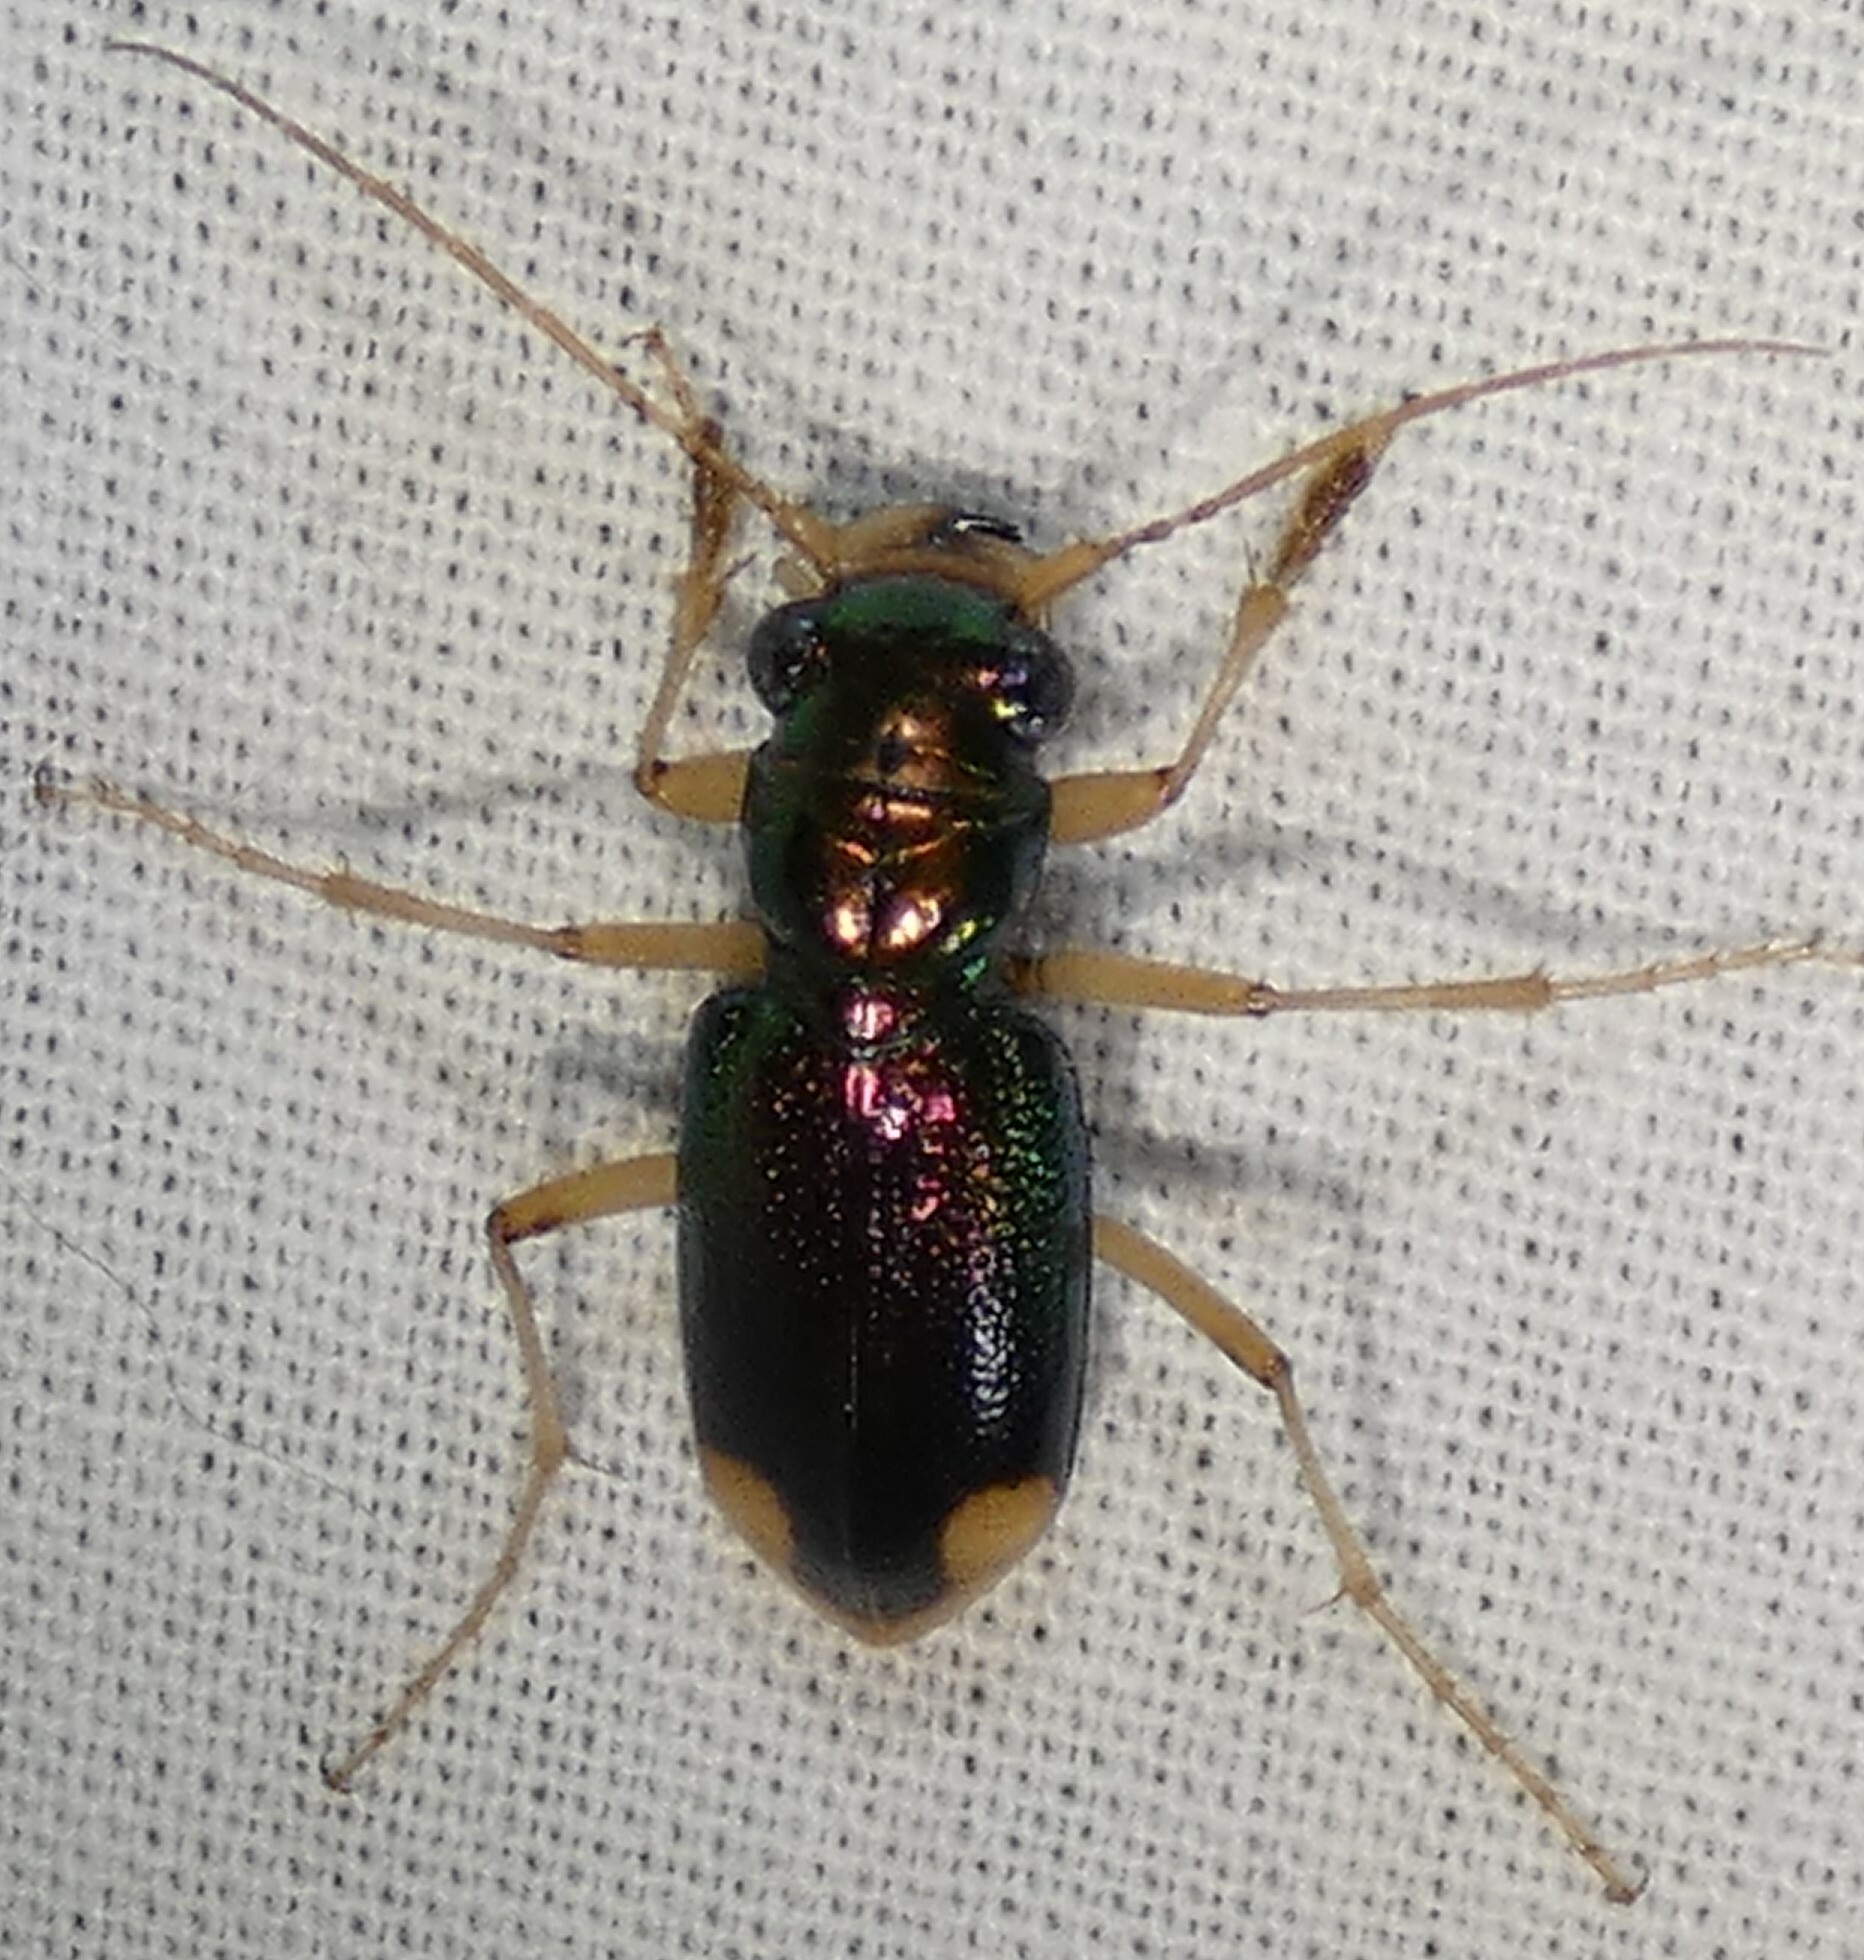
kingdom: Animalia
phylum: Arthropoda
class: Insecta
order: Coleoptera
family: Carabidae
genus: Tetracha
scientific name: Tetracha carolina
